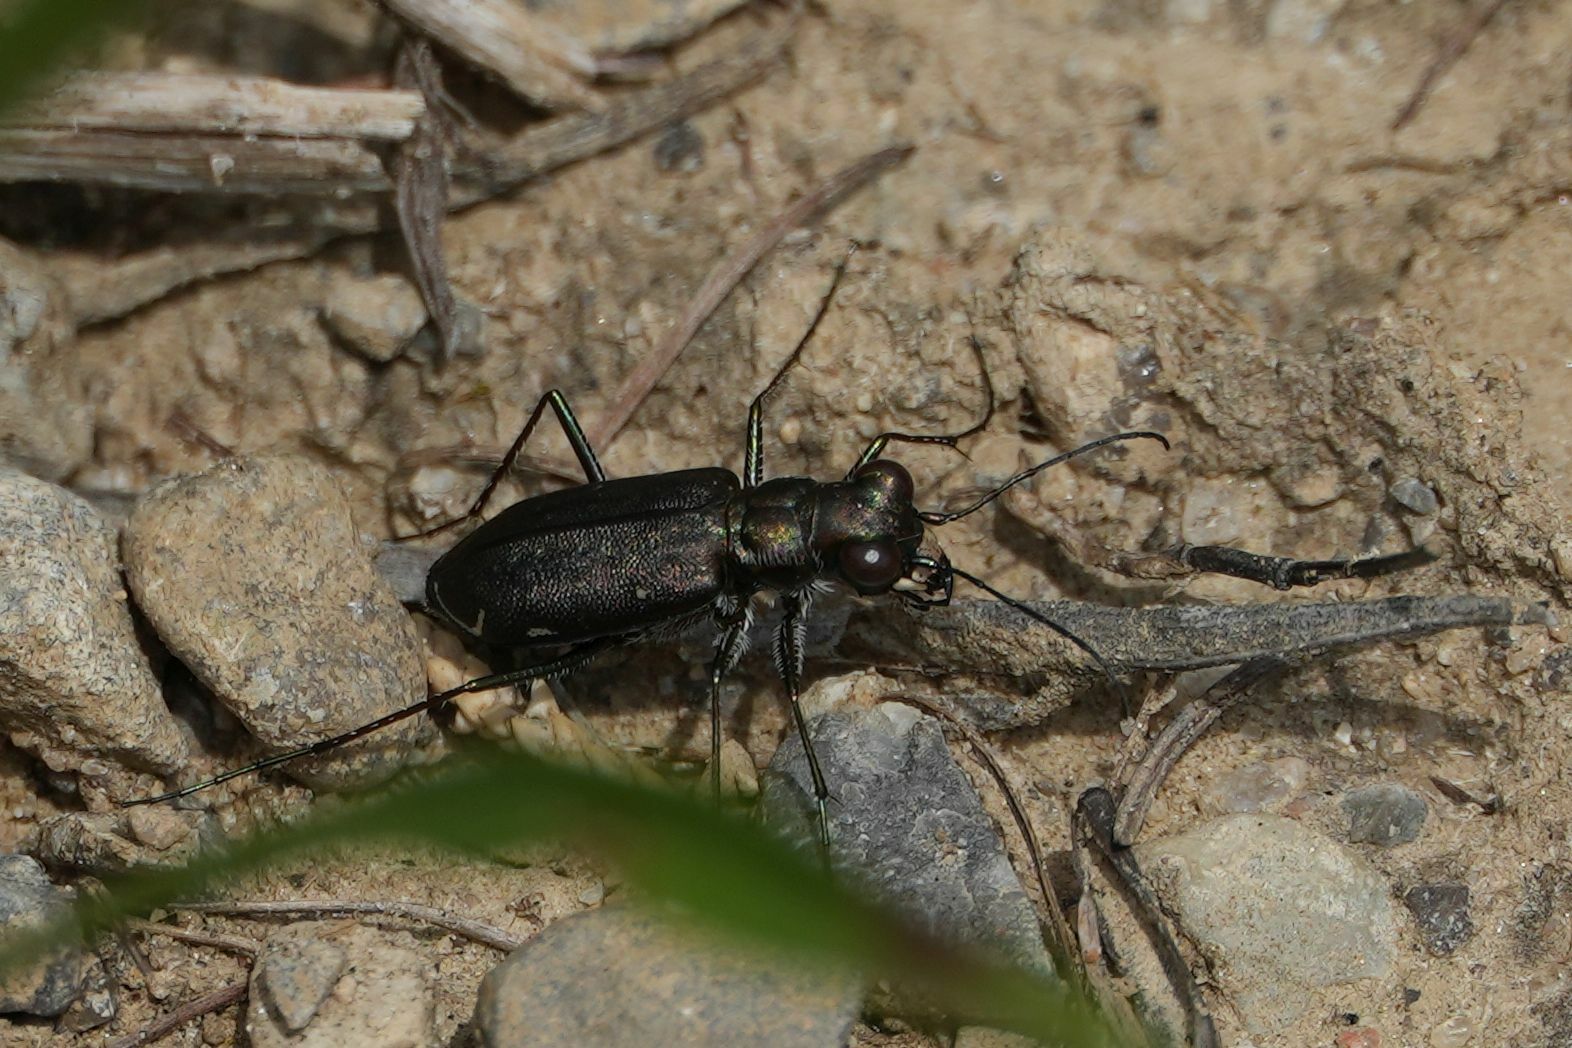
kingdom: Animalia
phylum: Arthropoda
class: Insecta
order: Coleoptera
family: Carabidae
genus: Cicindela
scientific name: Cicindela punctulata
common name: Punctured tiger beetle
